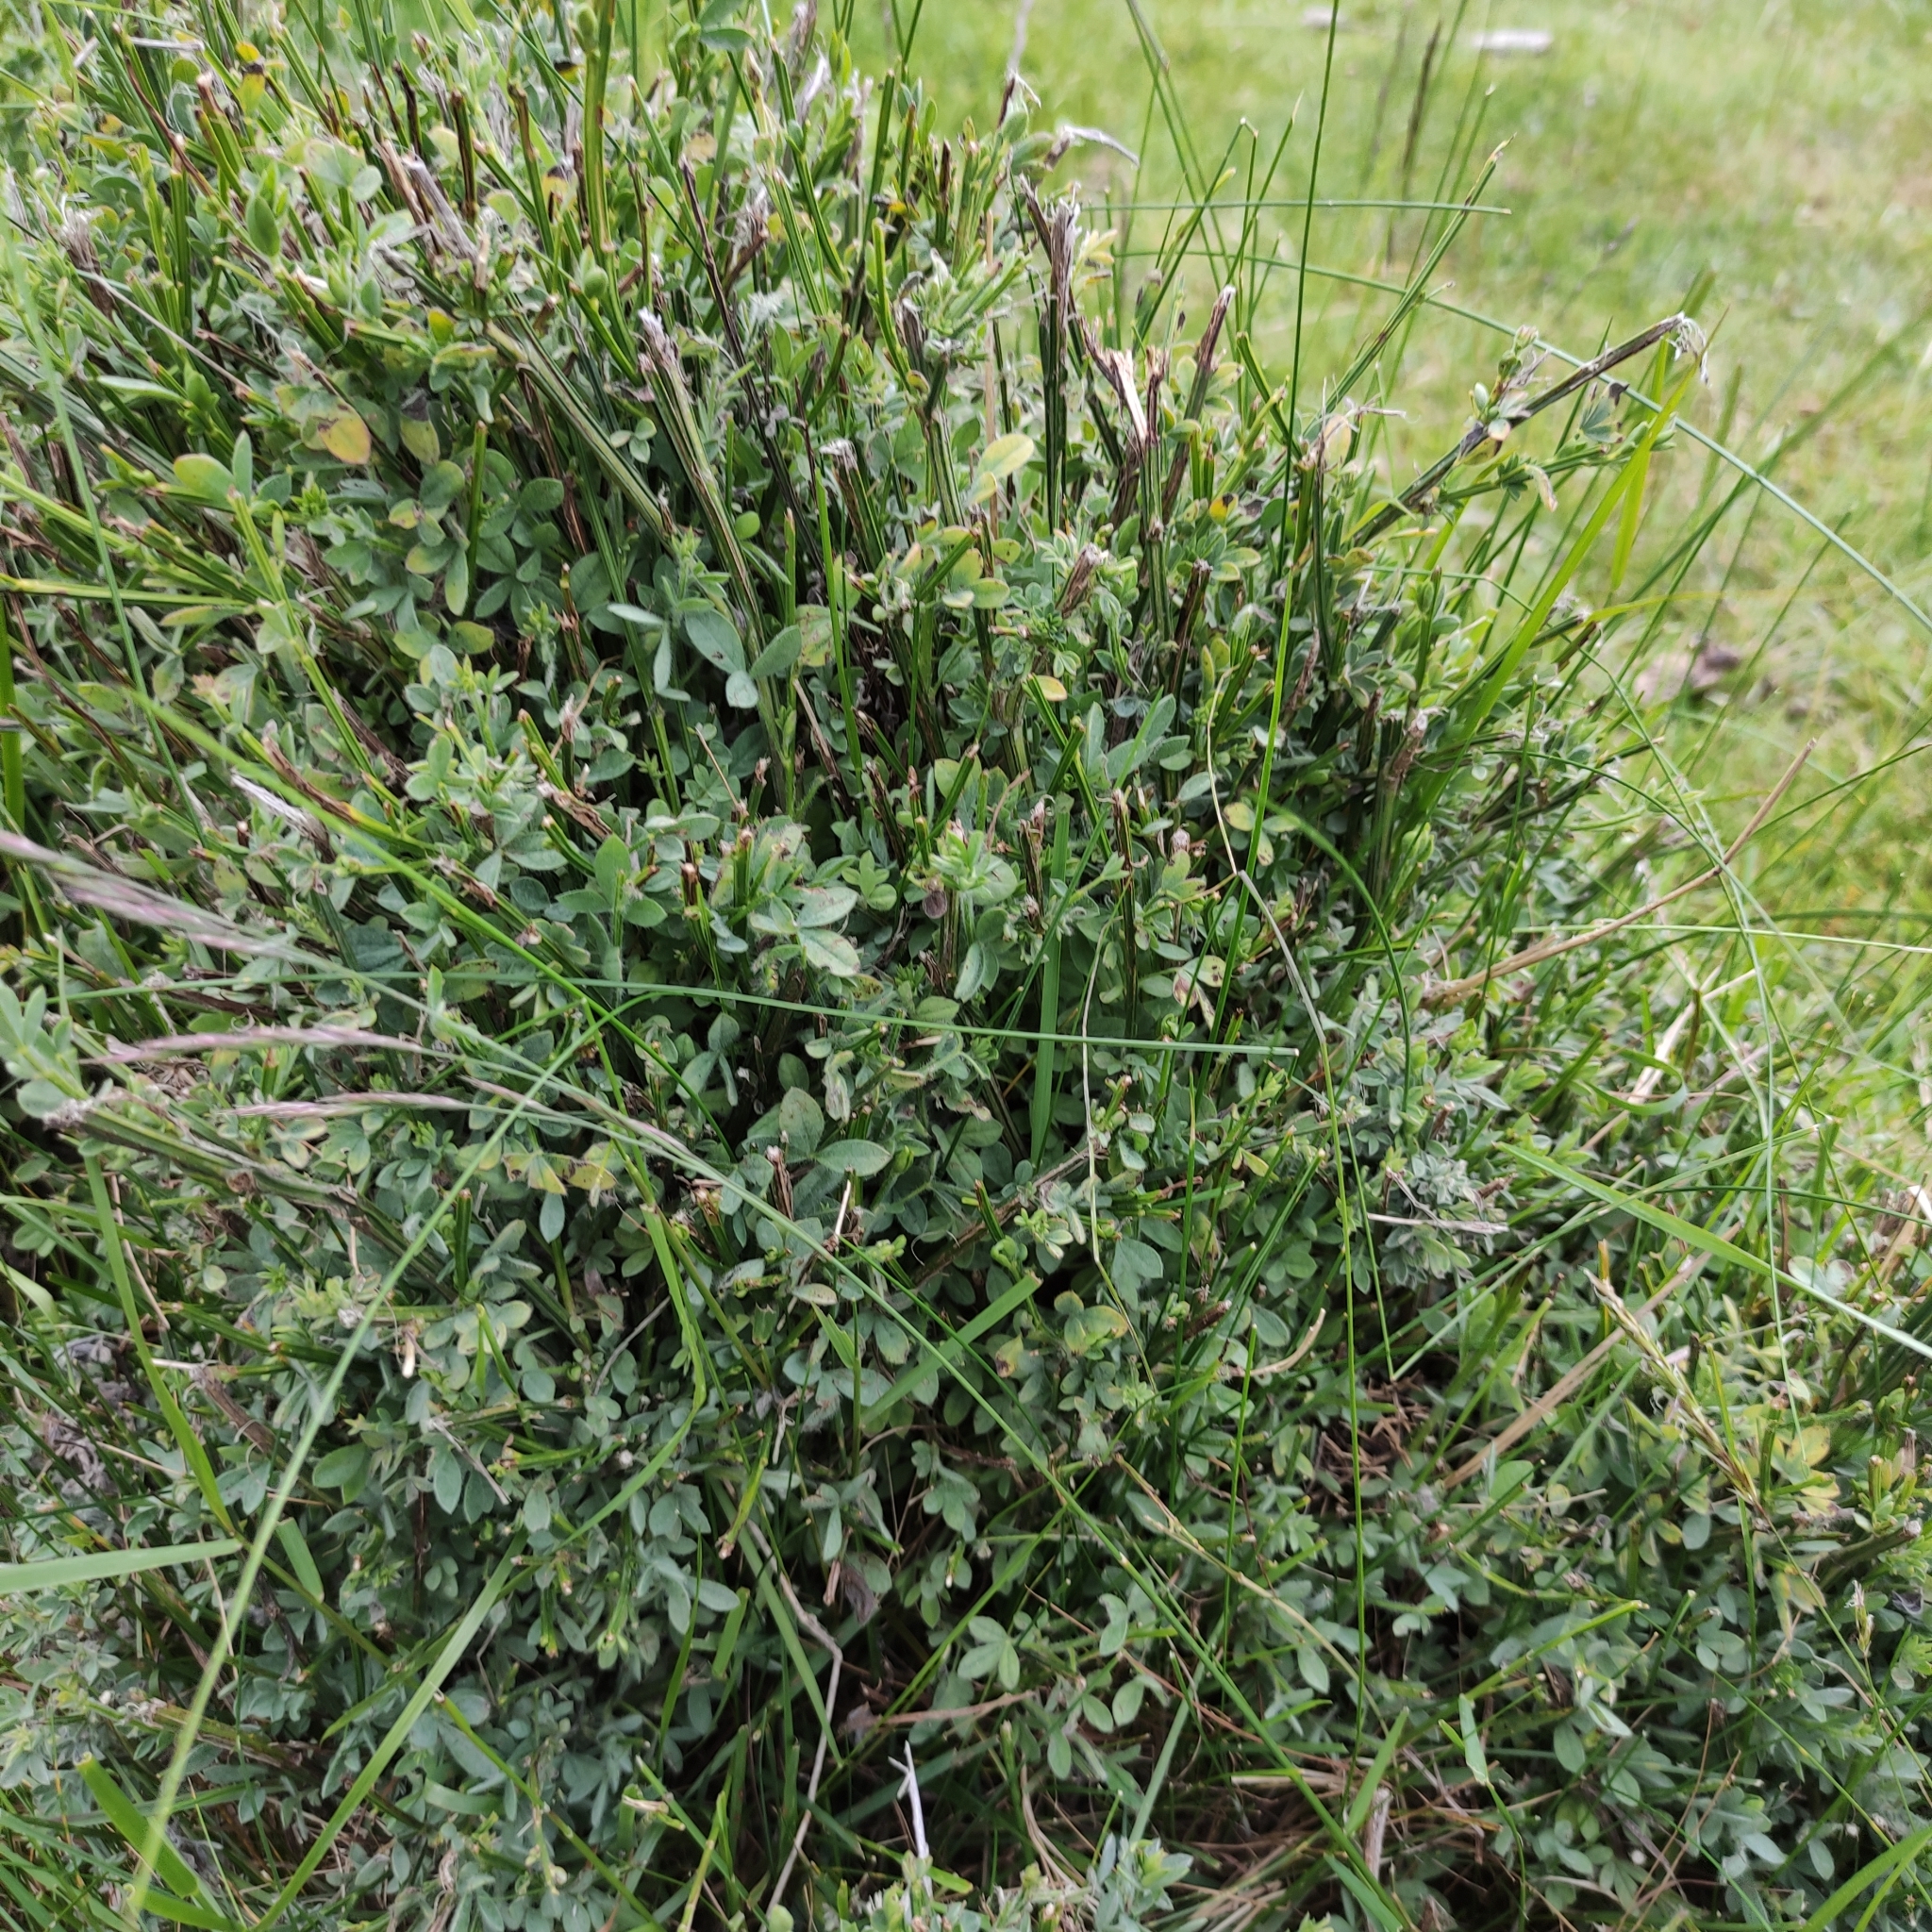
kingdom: Plantae
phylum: Tracheophyta
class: Magnoliopsida
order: Fabales
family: Fabaceae
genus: Cytisus
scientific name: Cytisus scoparius
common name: Scotch broom
